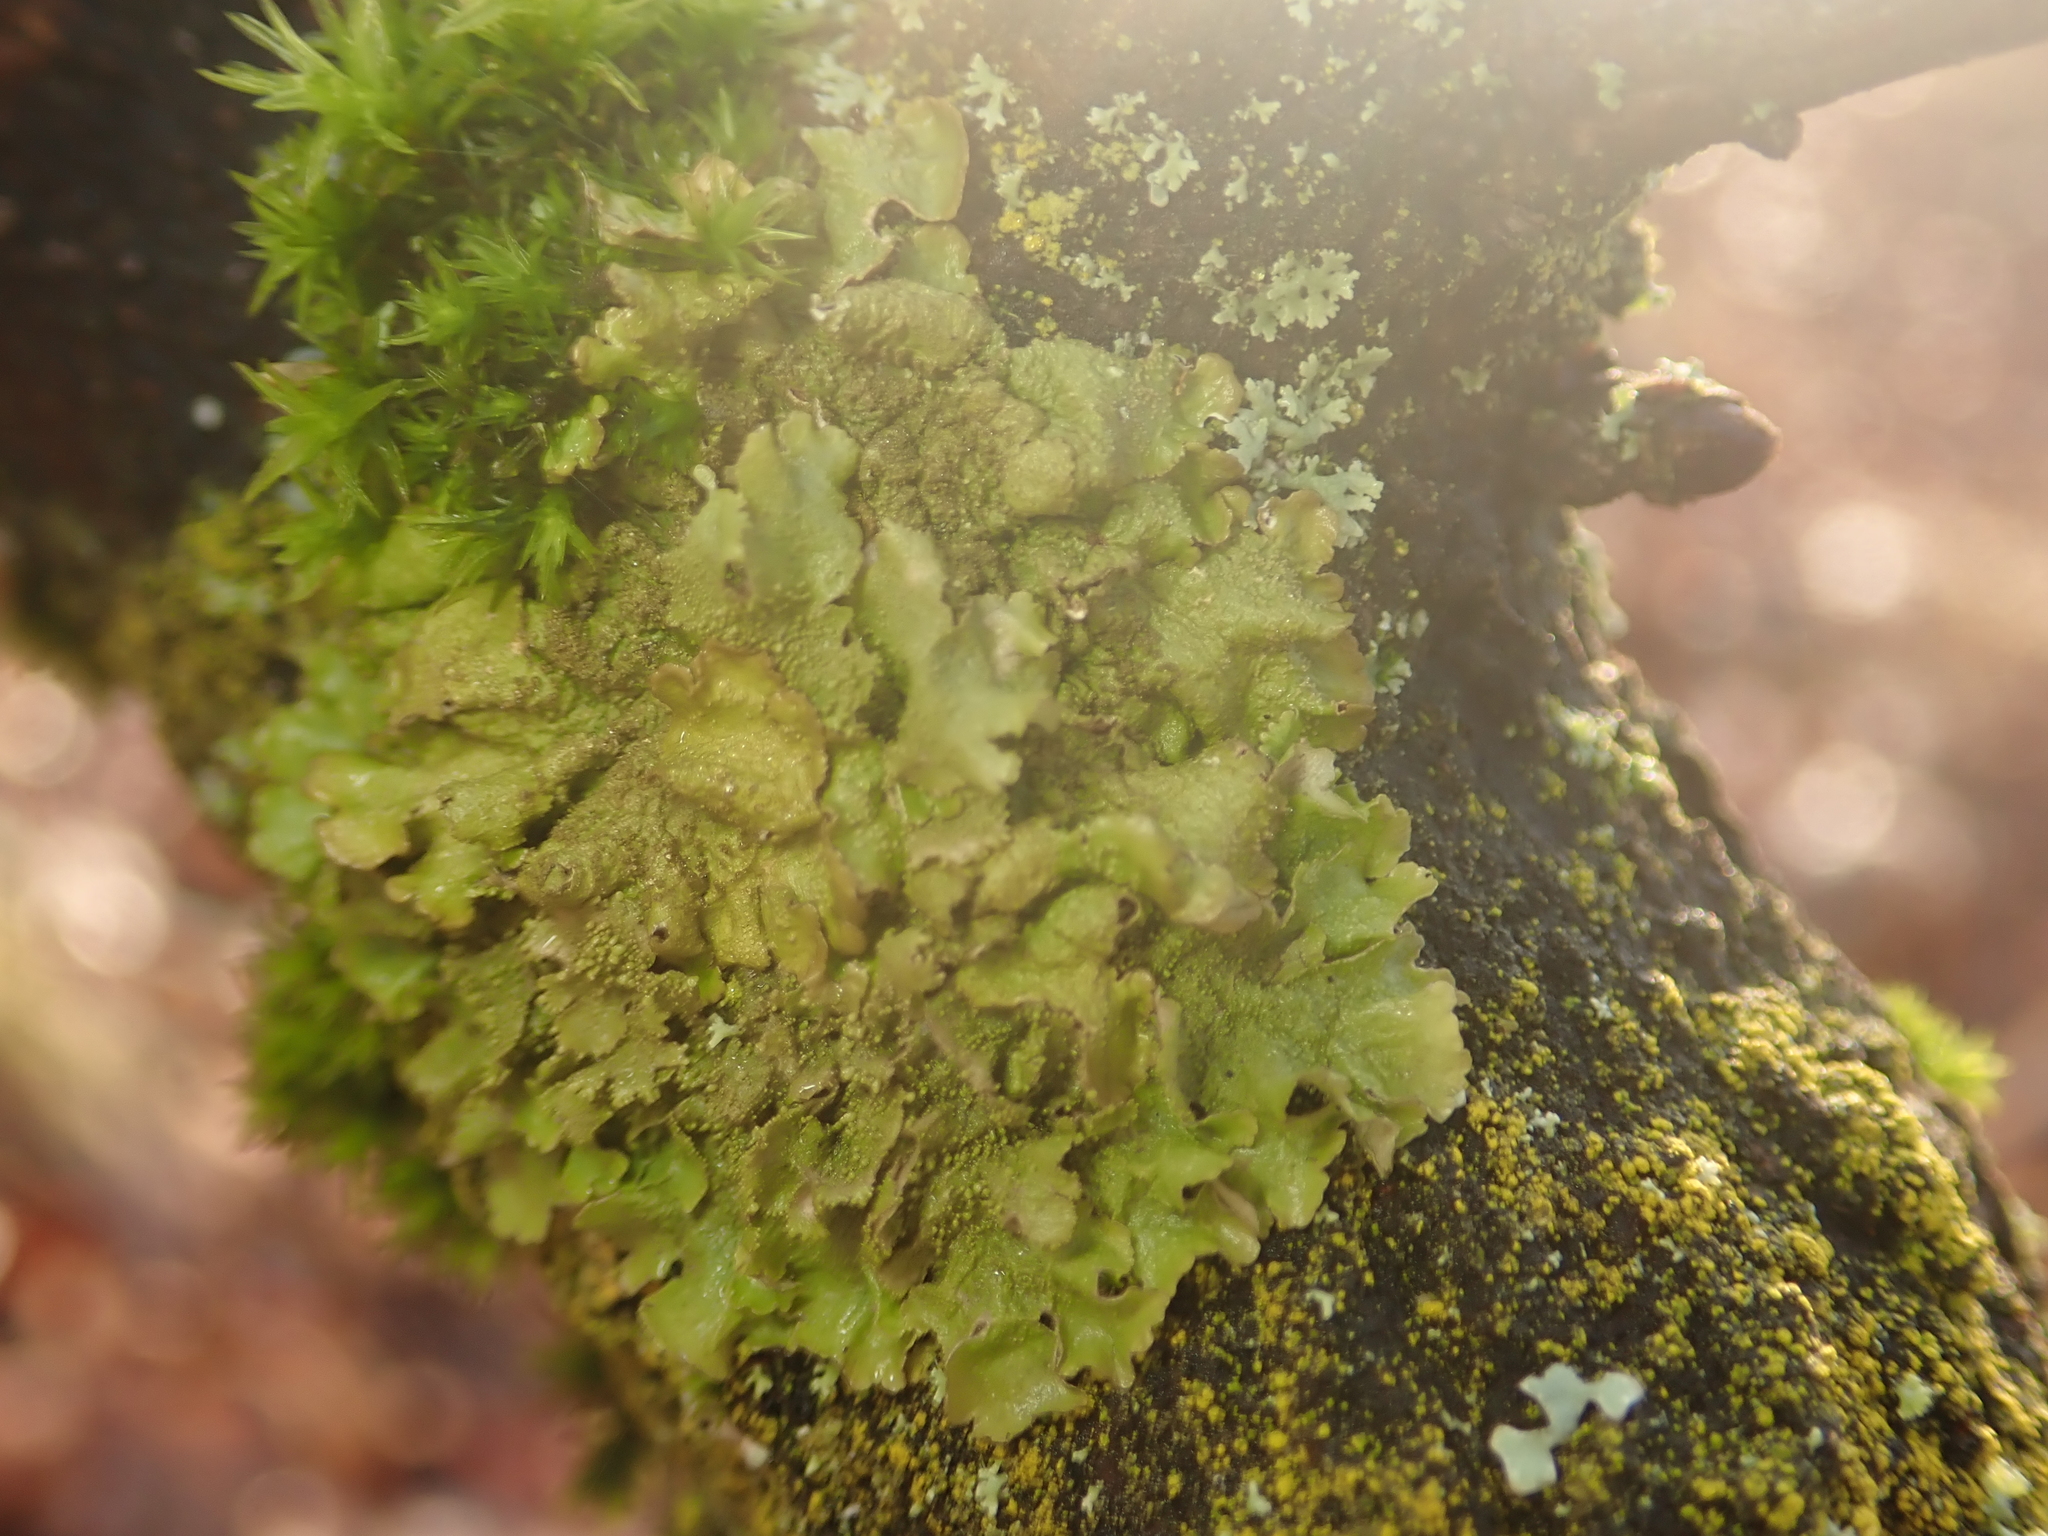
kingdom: Fungi
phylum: Ascomycota
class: Lecanoromycetes
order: Lecanorales
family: Parmeliaceae
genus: Melanohalea
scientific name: Melanohalea exasperatula
